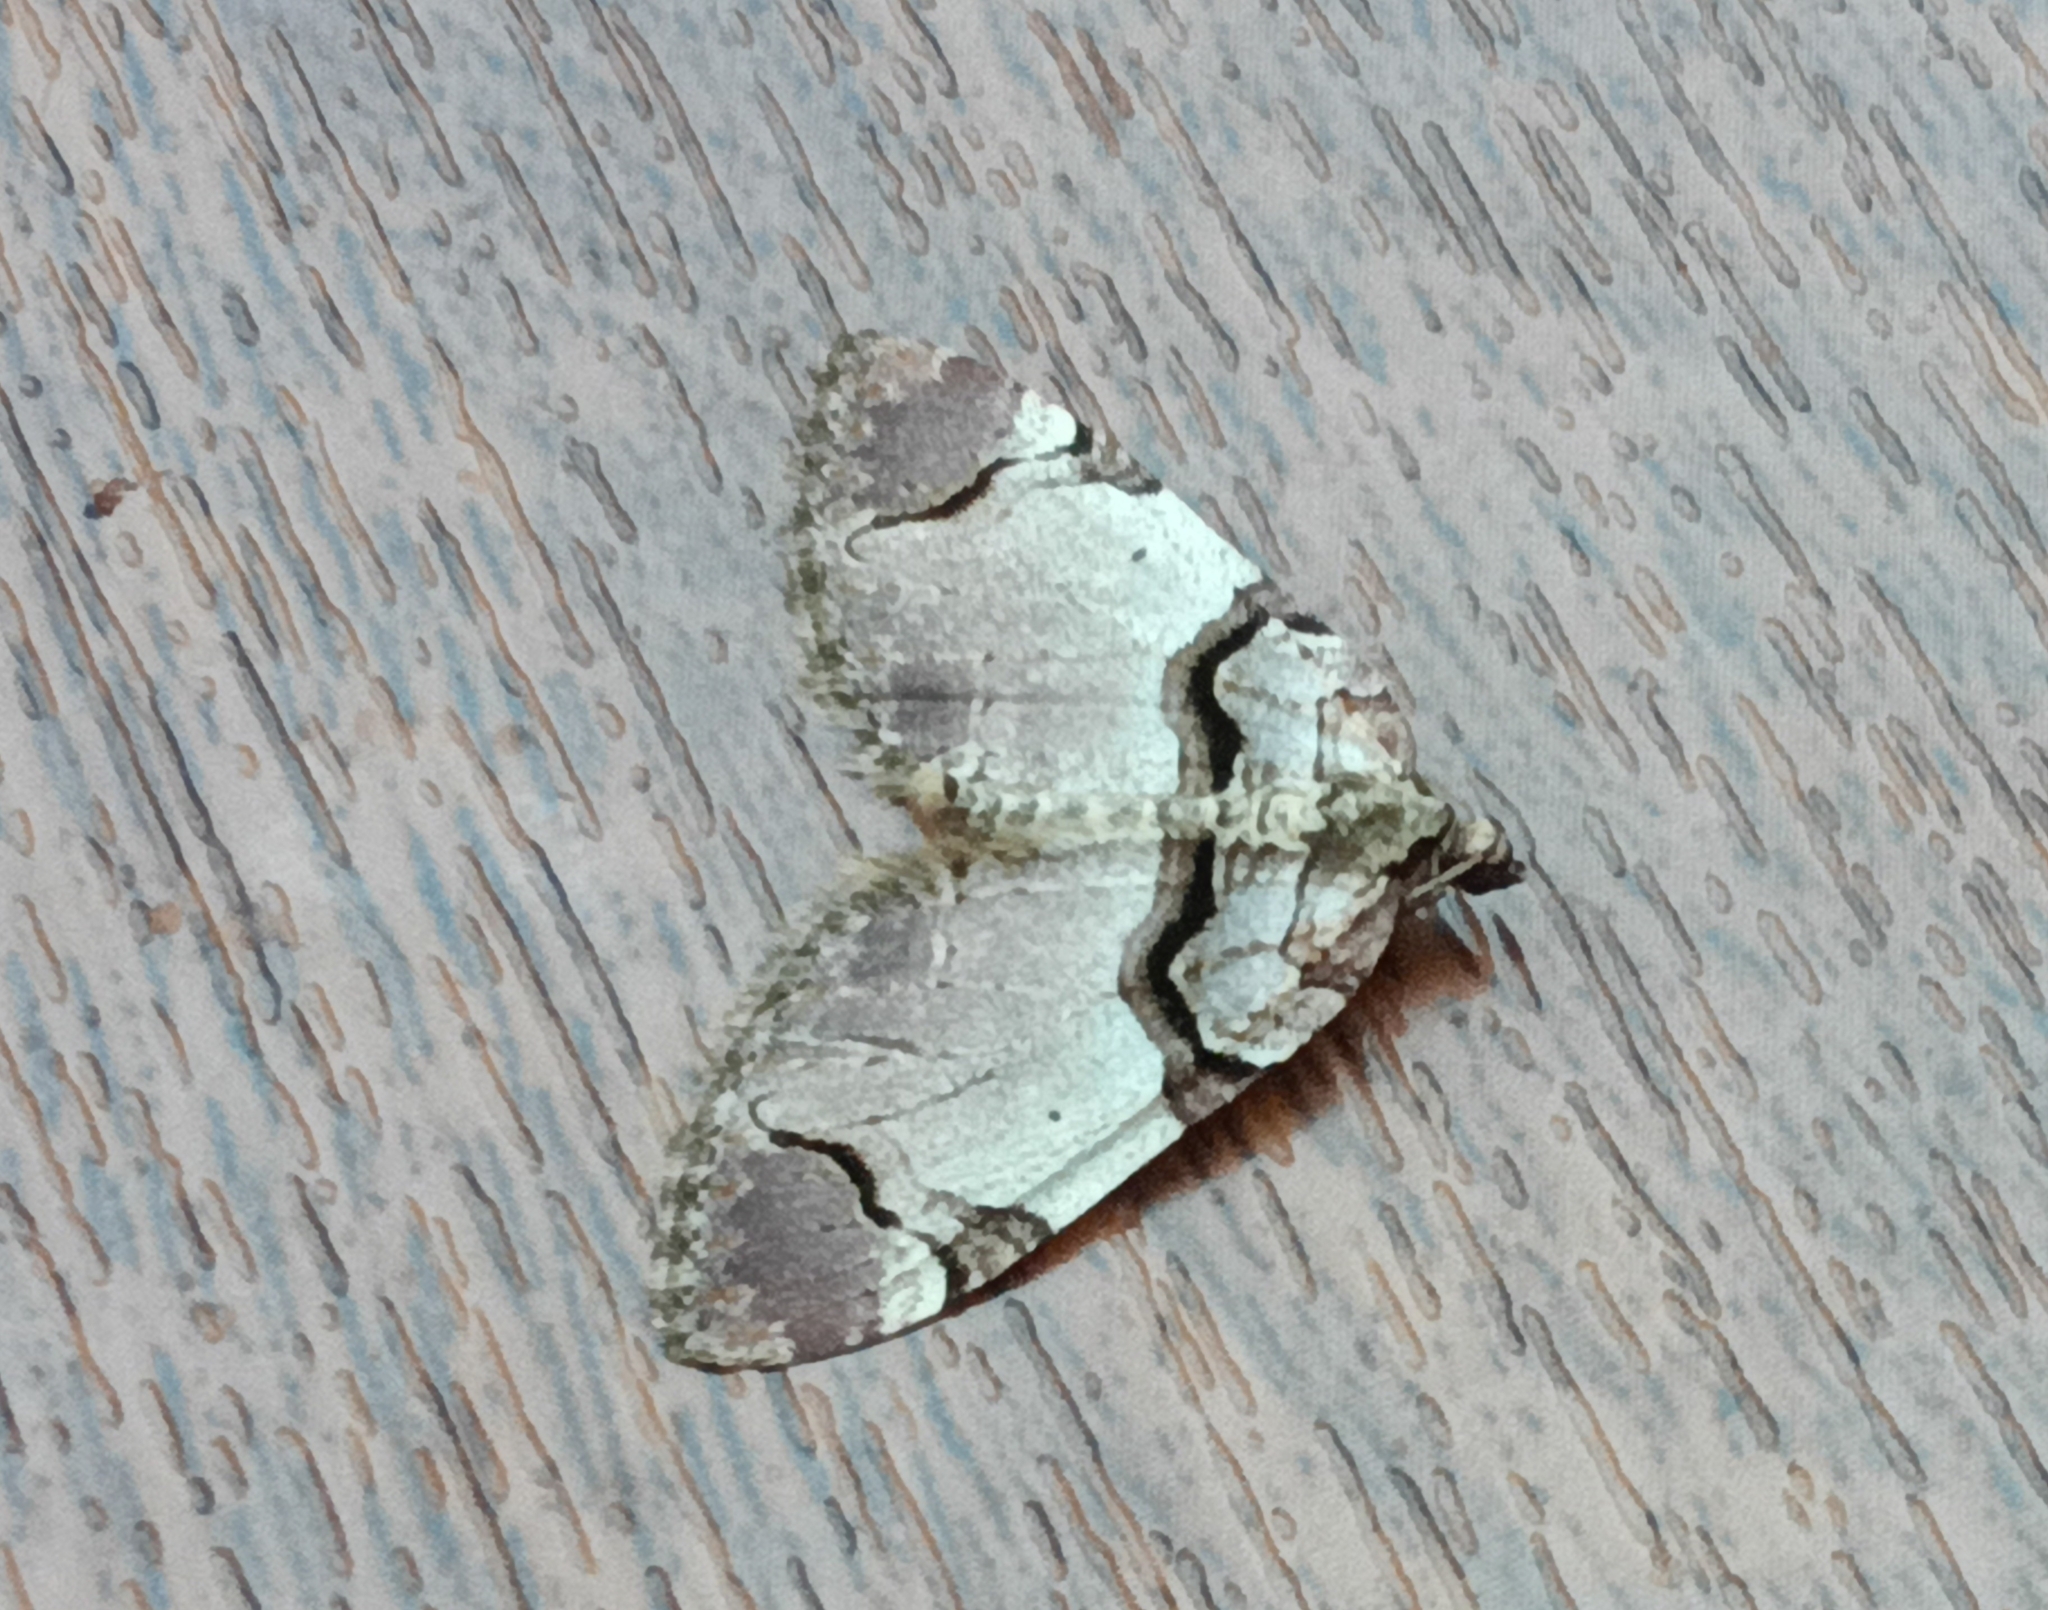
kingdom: Animalia
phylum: Arthropoda
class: Insecta
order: Lepidoptera
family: Geometridae
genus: Anticlea
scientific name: Anticlea derivata
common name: Streamer
